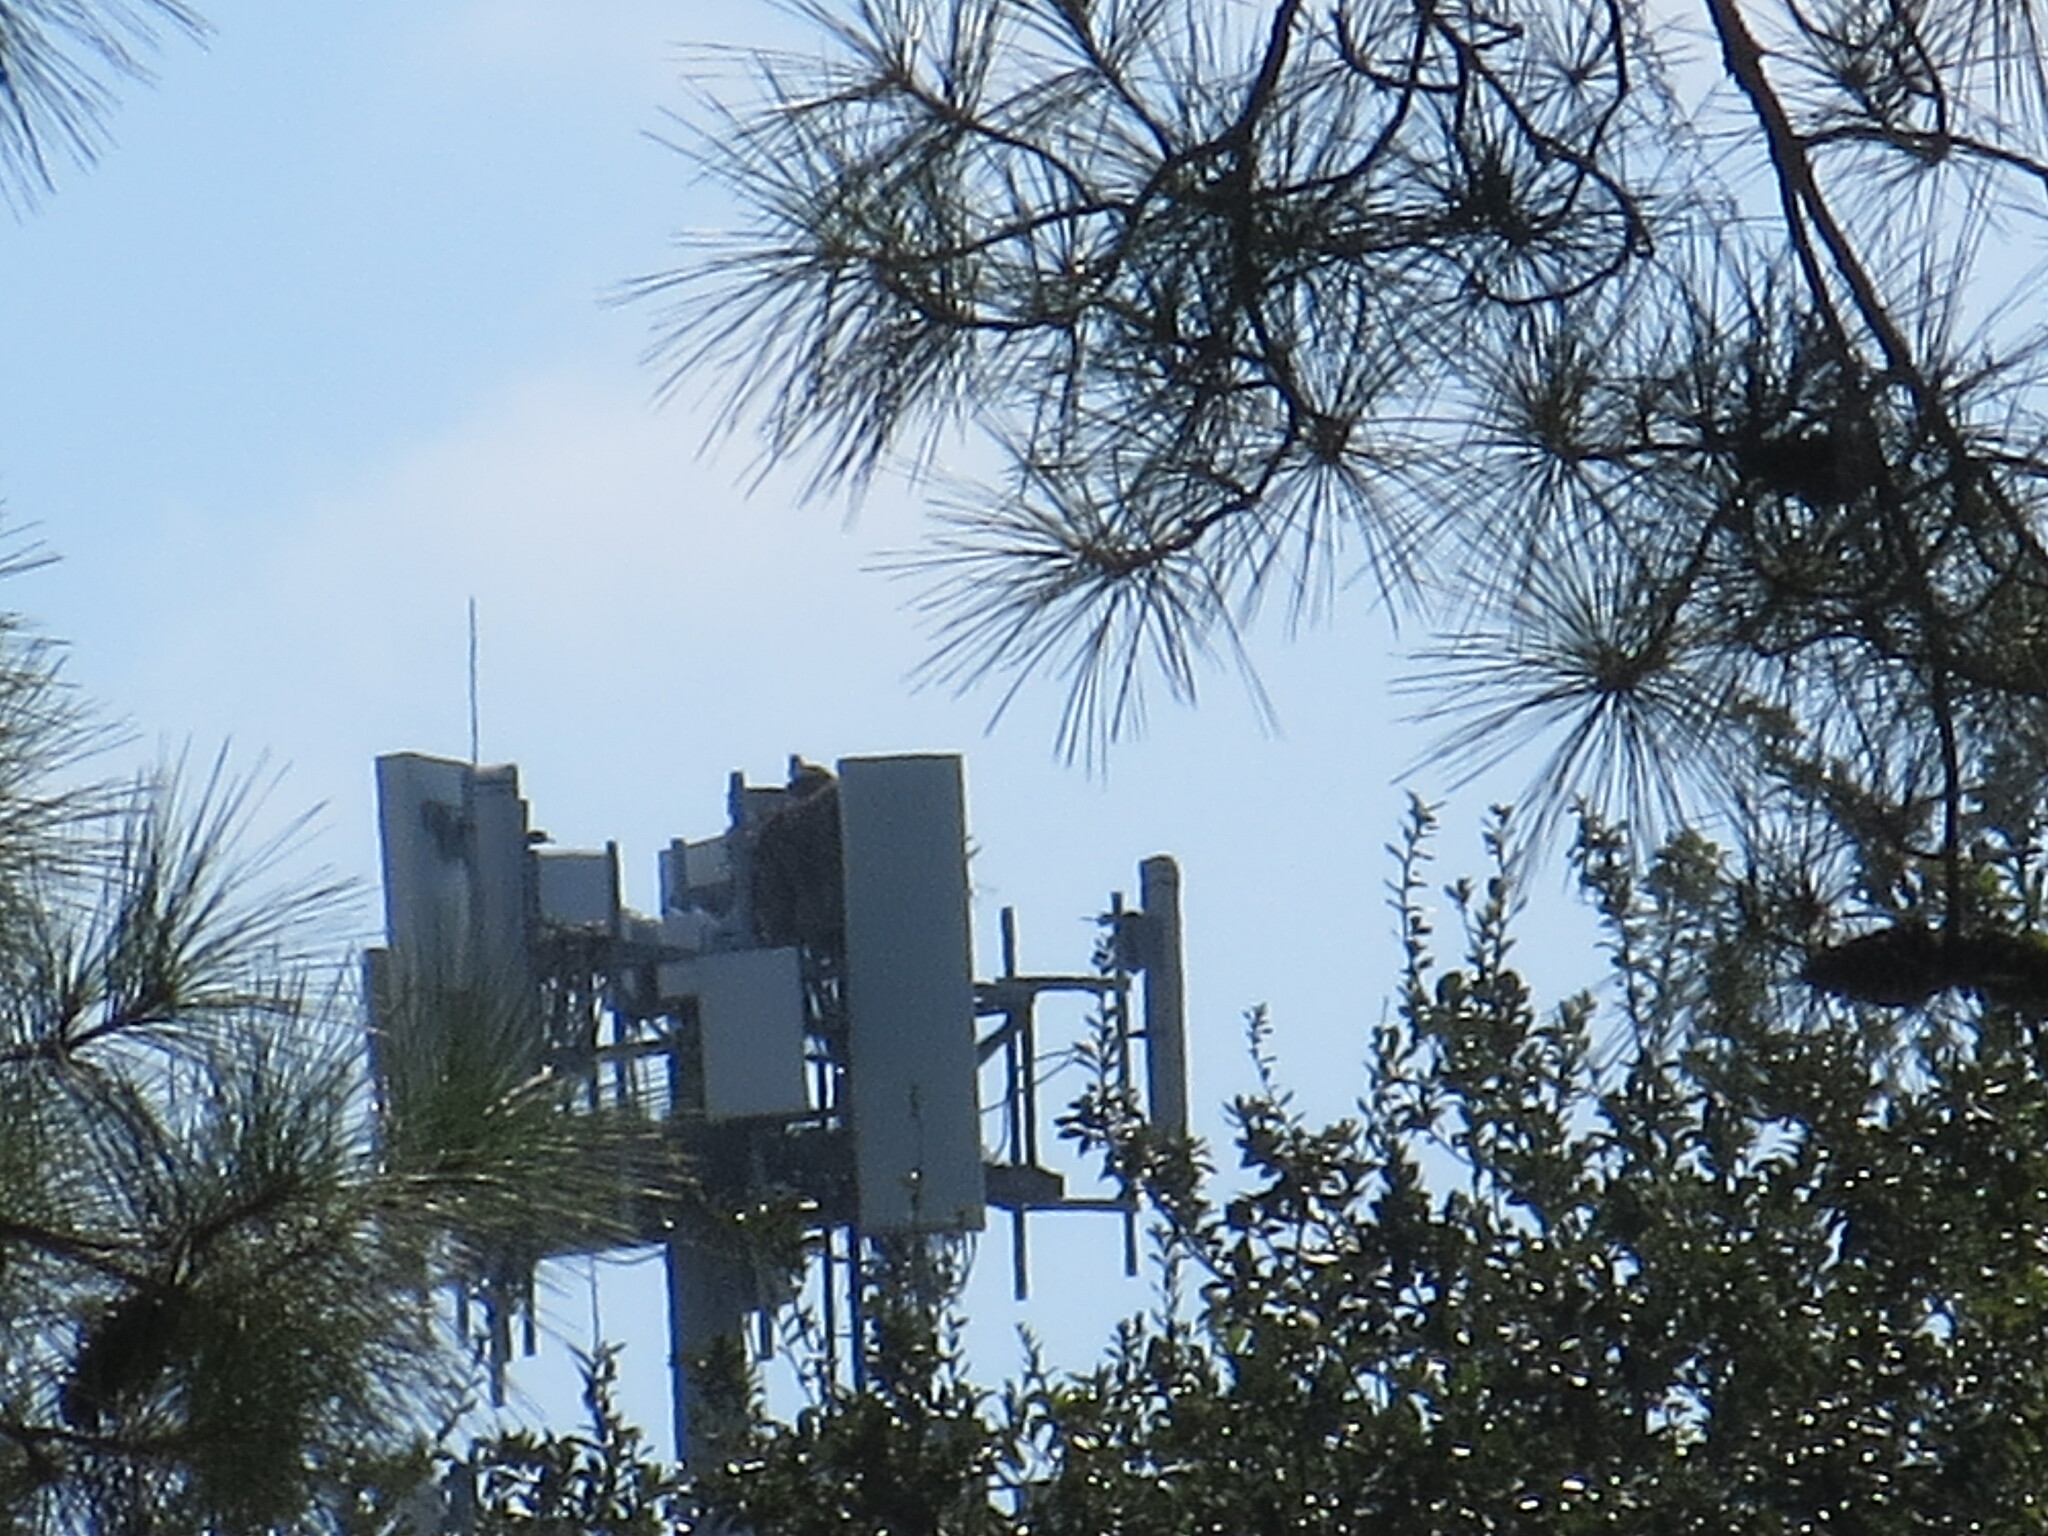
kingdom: Animalia
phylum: Chordata
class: Aves
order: Accipitriformes
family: Pandionidae
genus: Pandion
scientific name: Pandion haliaetus
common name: Osprey
